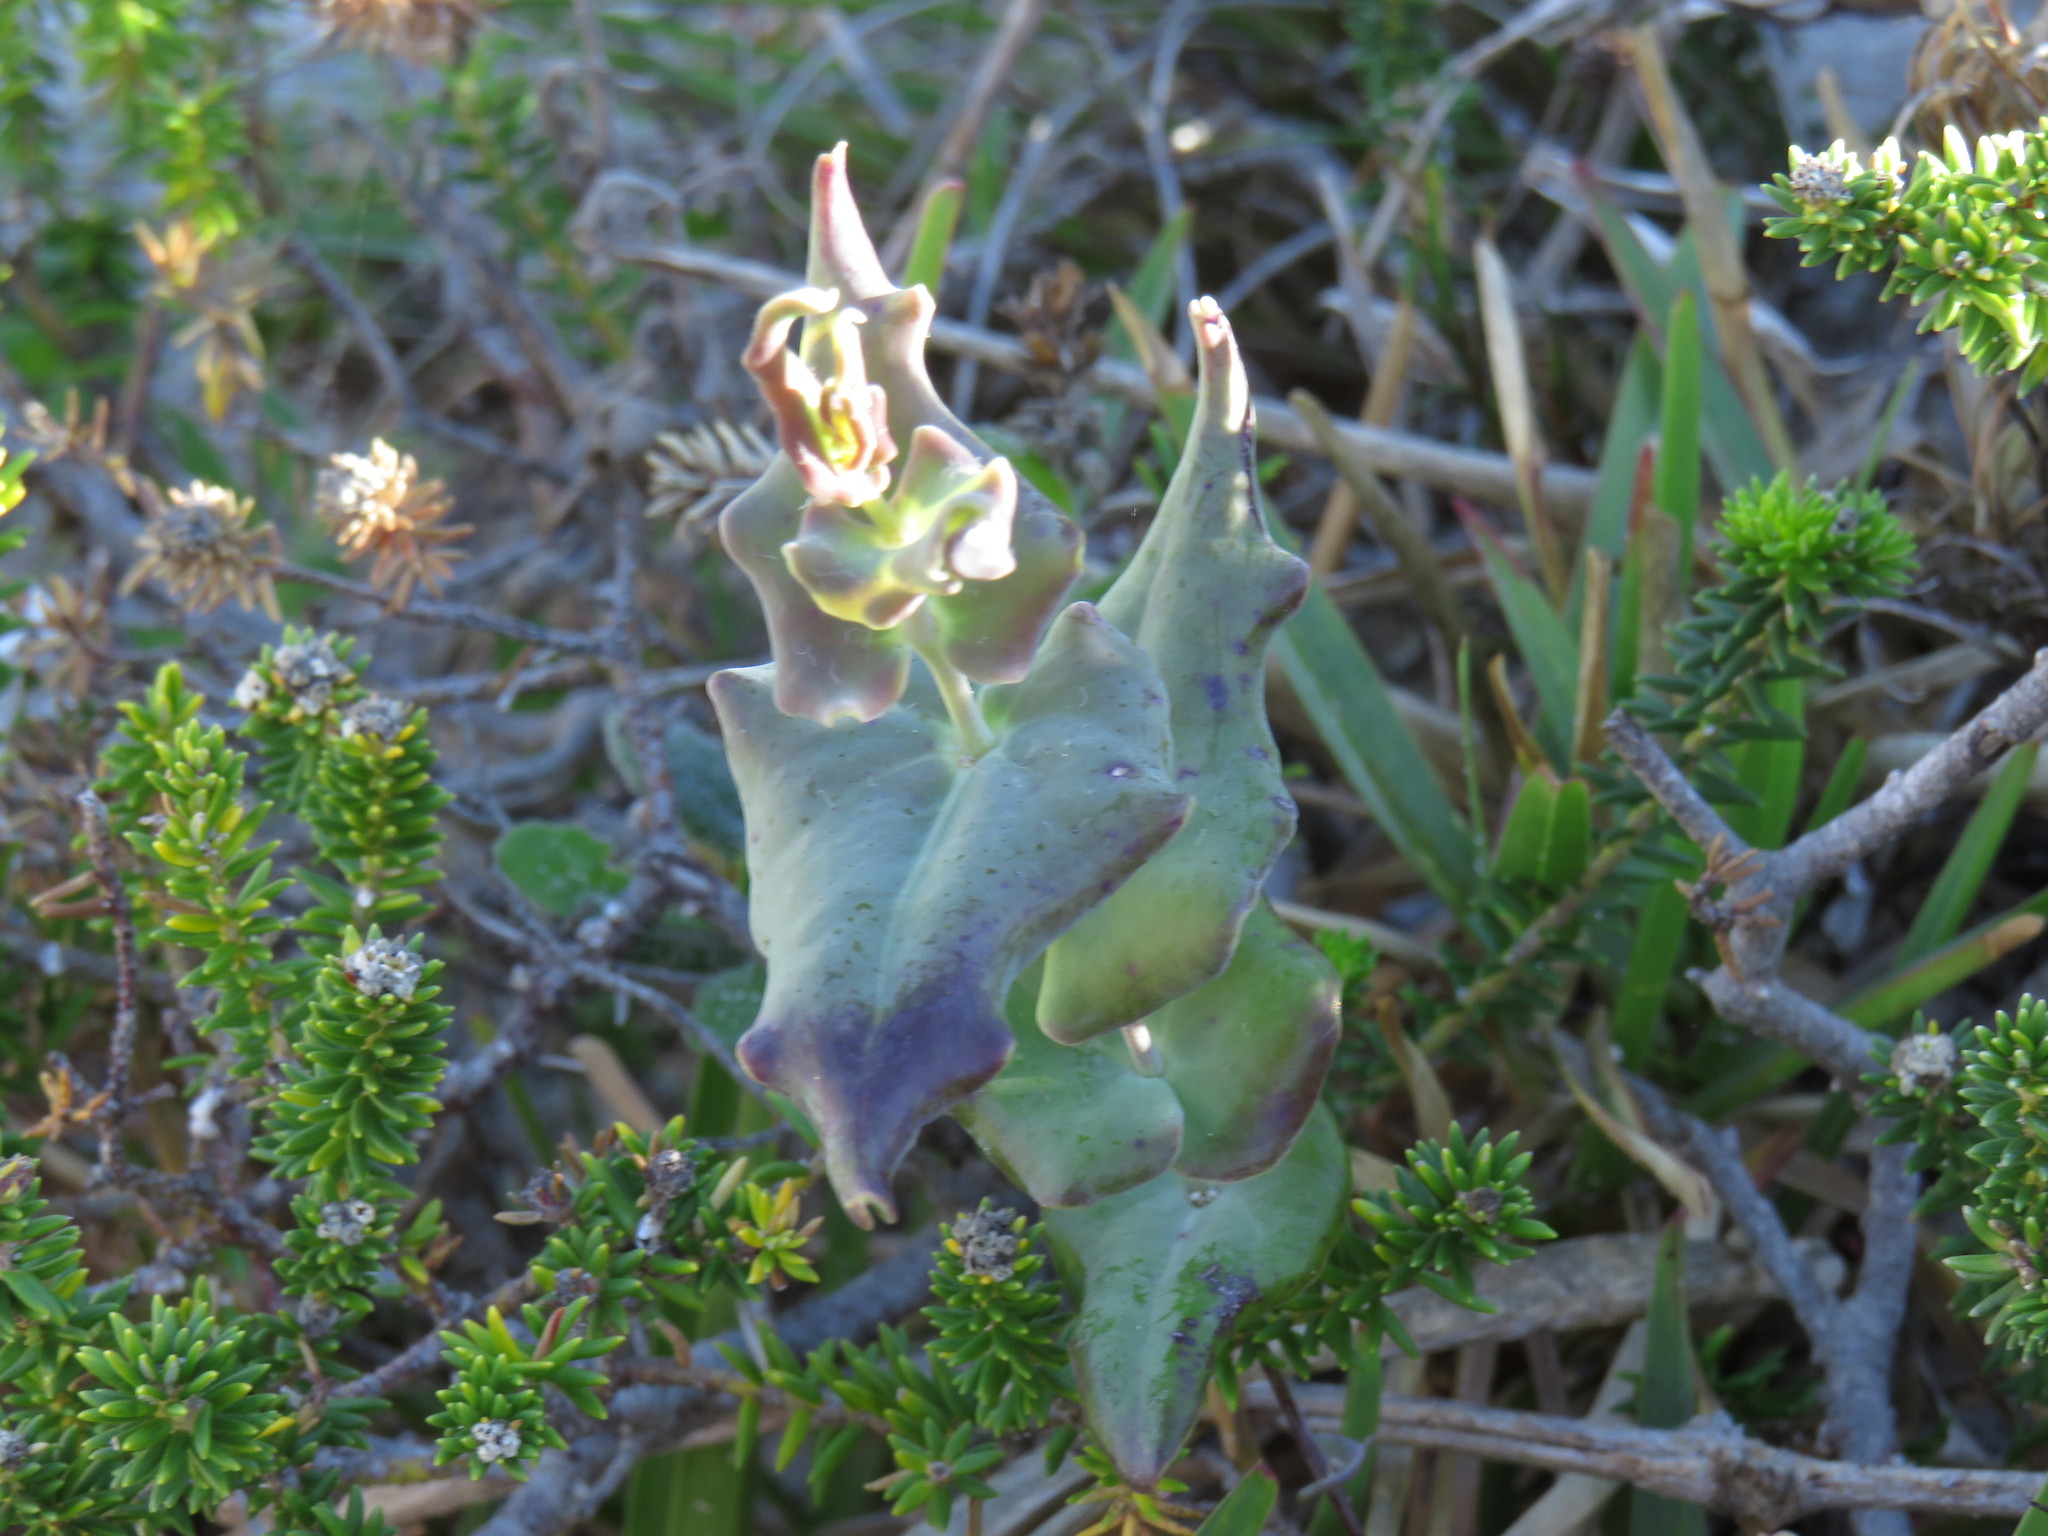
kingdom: Plantae
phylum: Tracheophyta
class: Magnoliopsida
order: Asterales
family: Asteraceae
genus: Othonna
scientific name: Othonna undulosa
